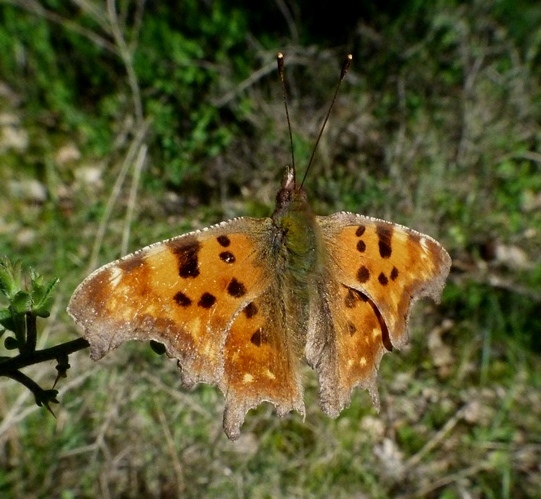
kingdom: Animalia
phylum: Arthropoda
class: Insecta
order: Lepidoptera
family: Nymphalidae
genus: Polygonia
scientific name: Polygonia c-album
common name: Comma
